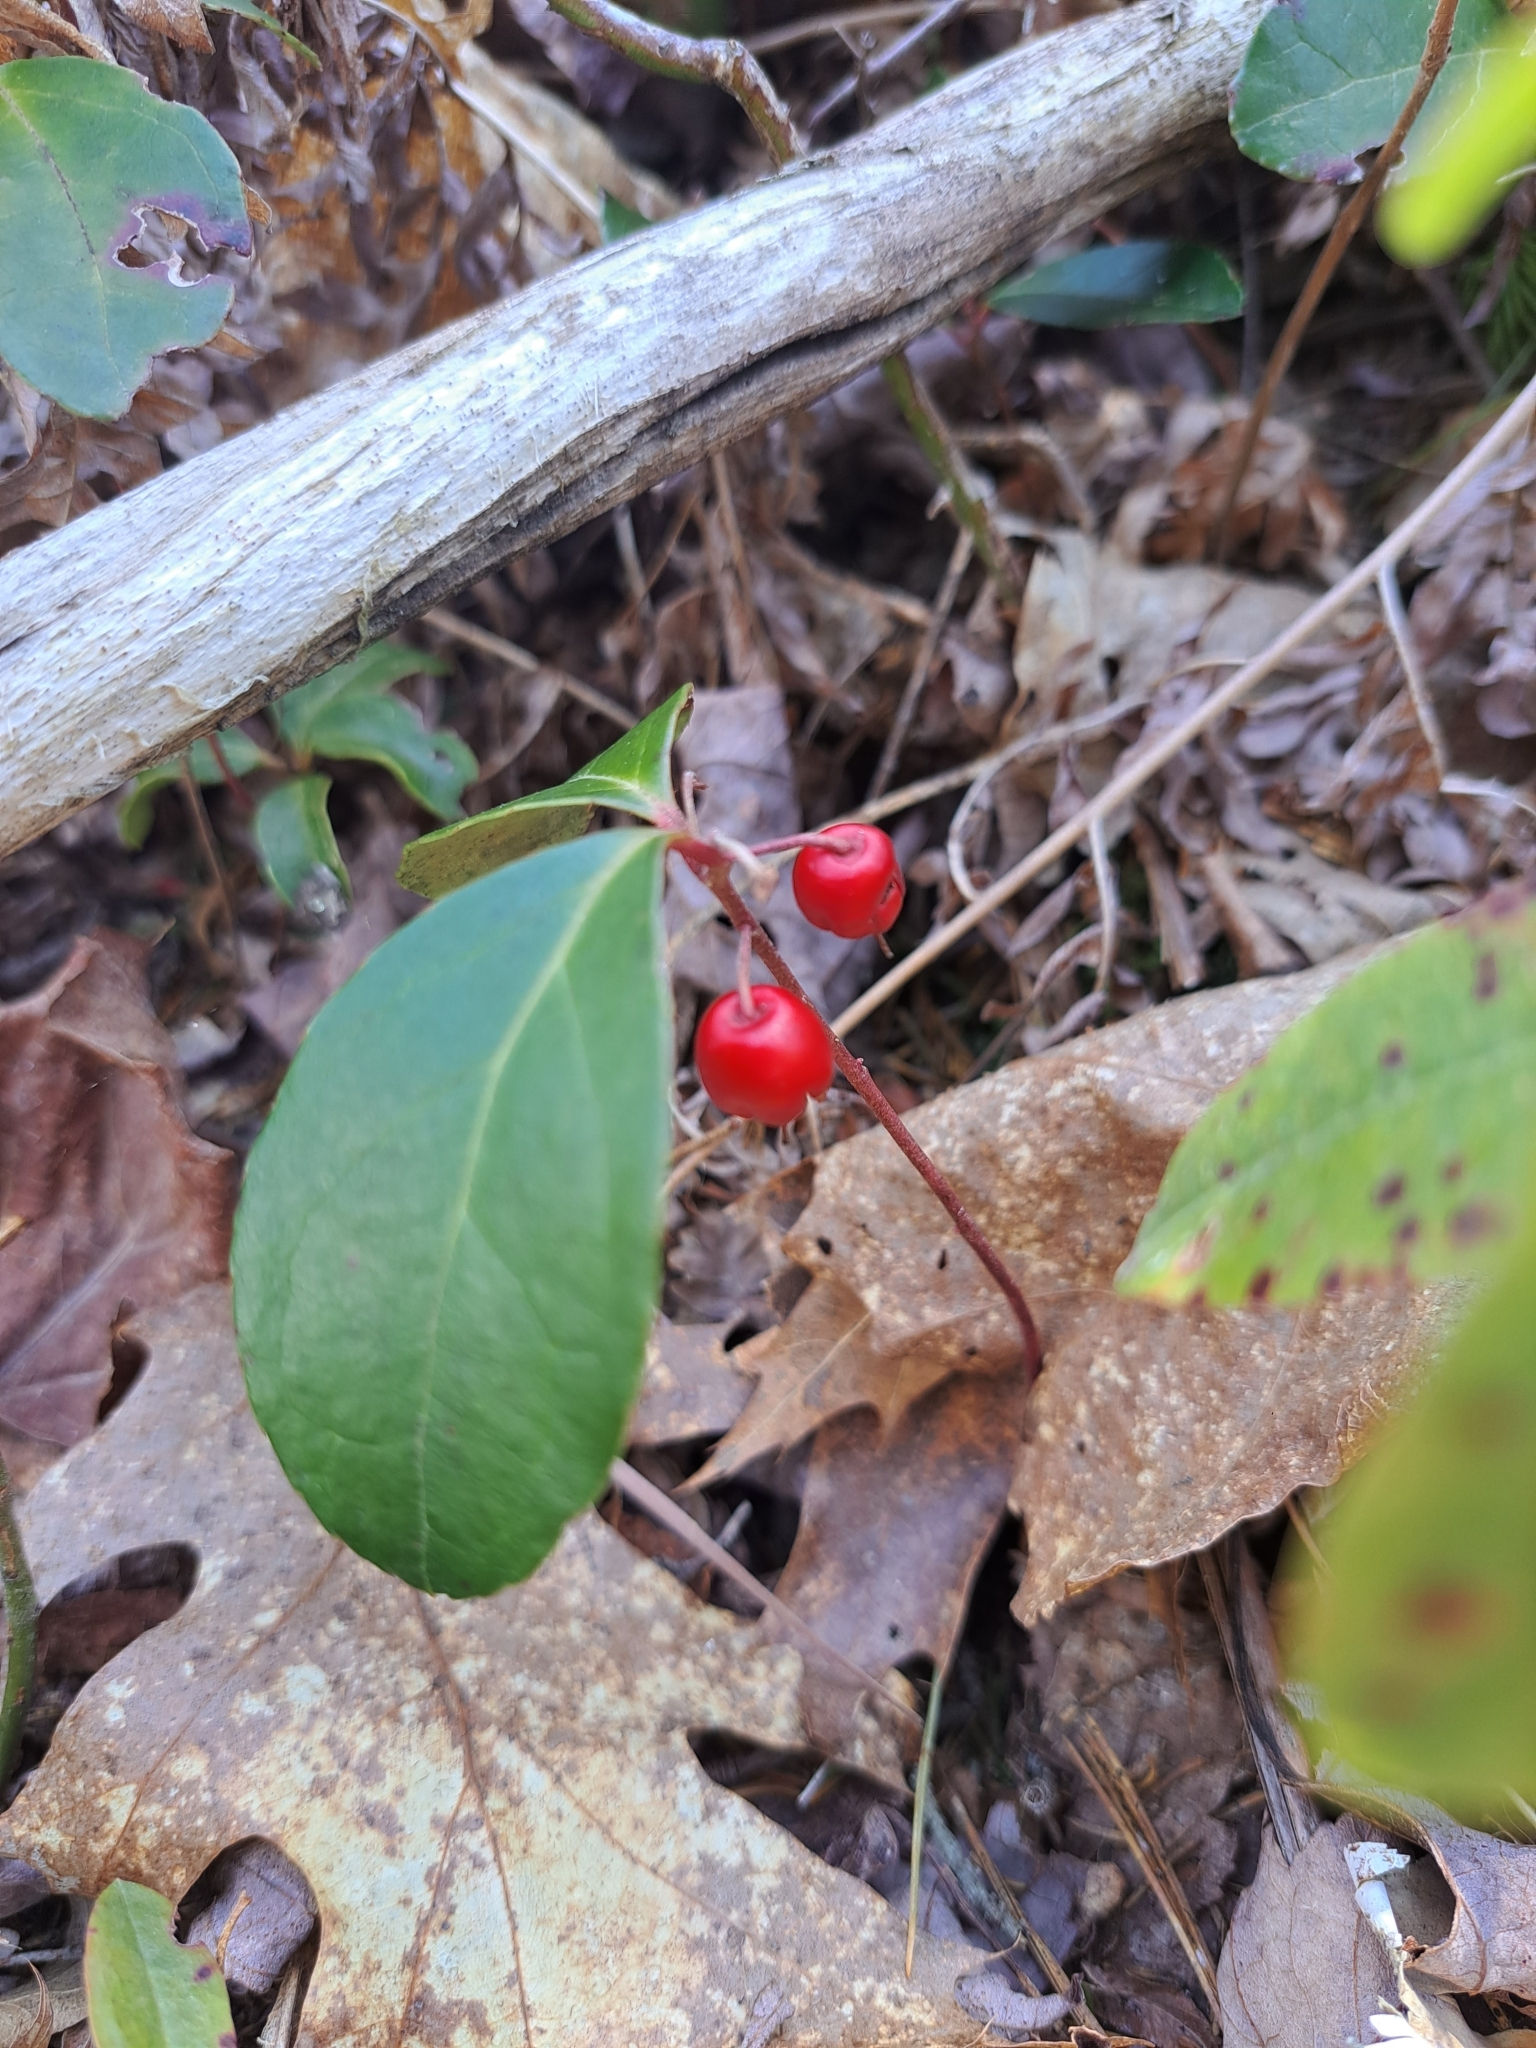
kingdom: Plantae
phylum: Tracheophyta
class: Magnoliopsida
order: Ericales
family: Ericaceae
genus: Gaultheria
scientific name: Gaultheria procumbens
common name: Checkerberry
